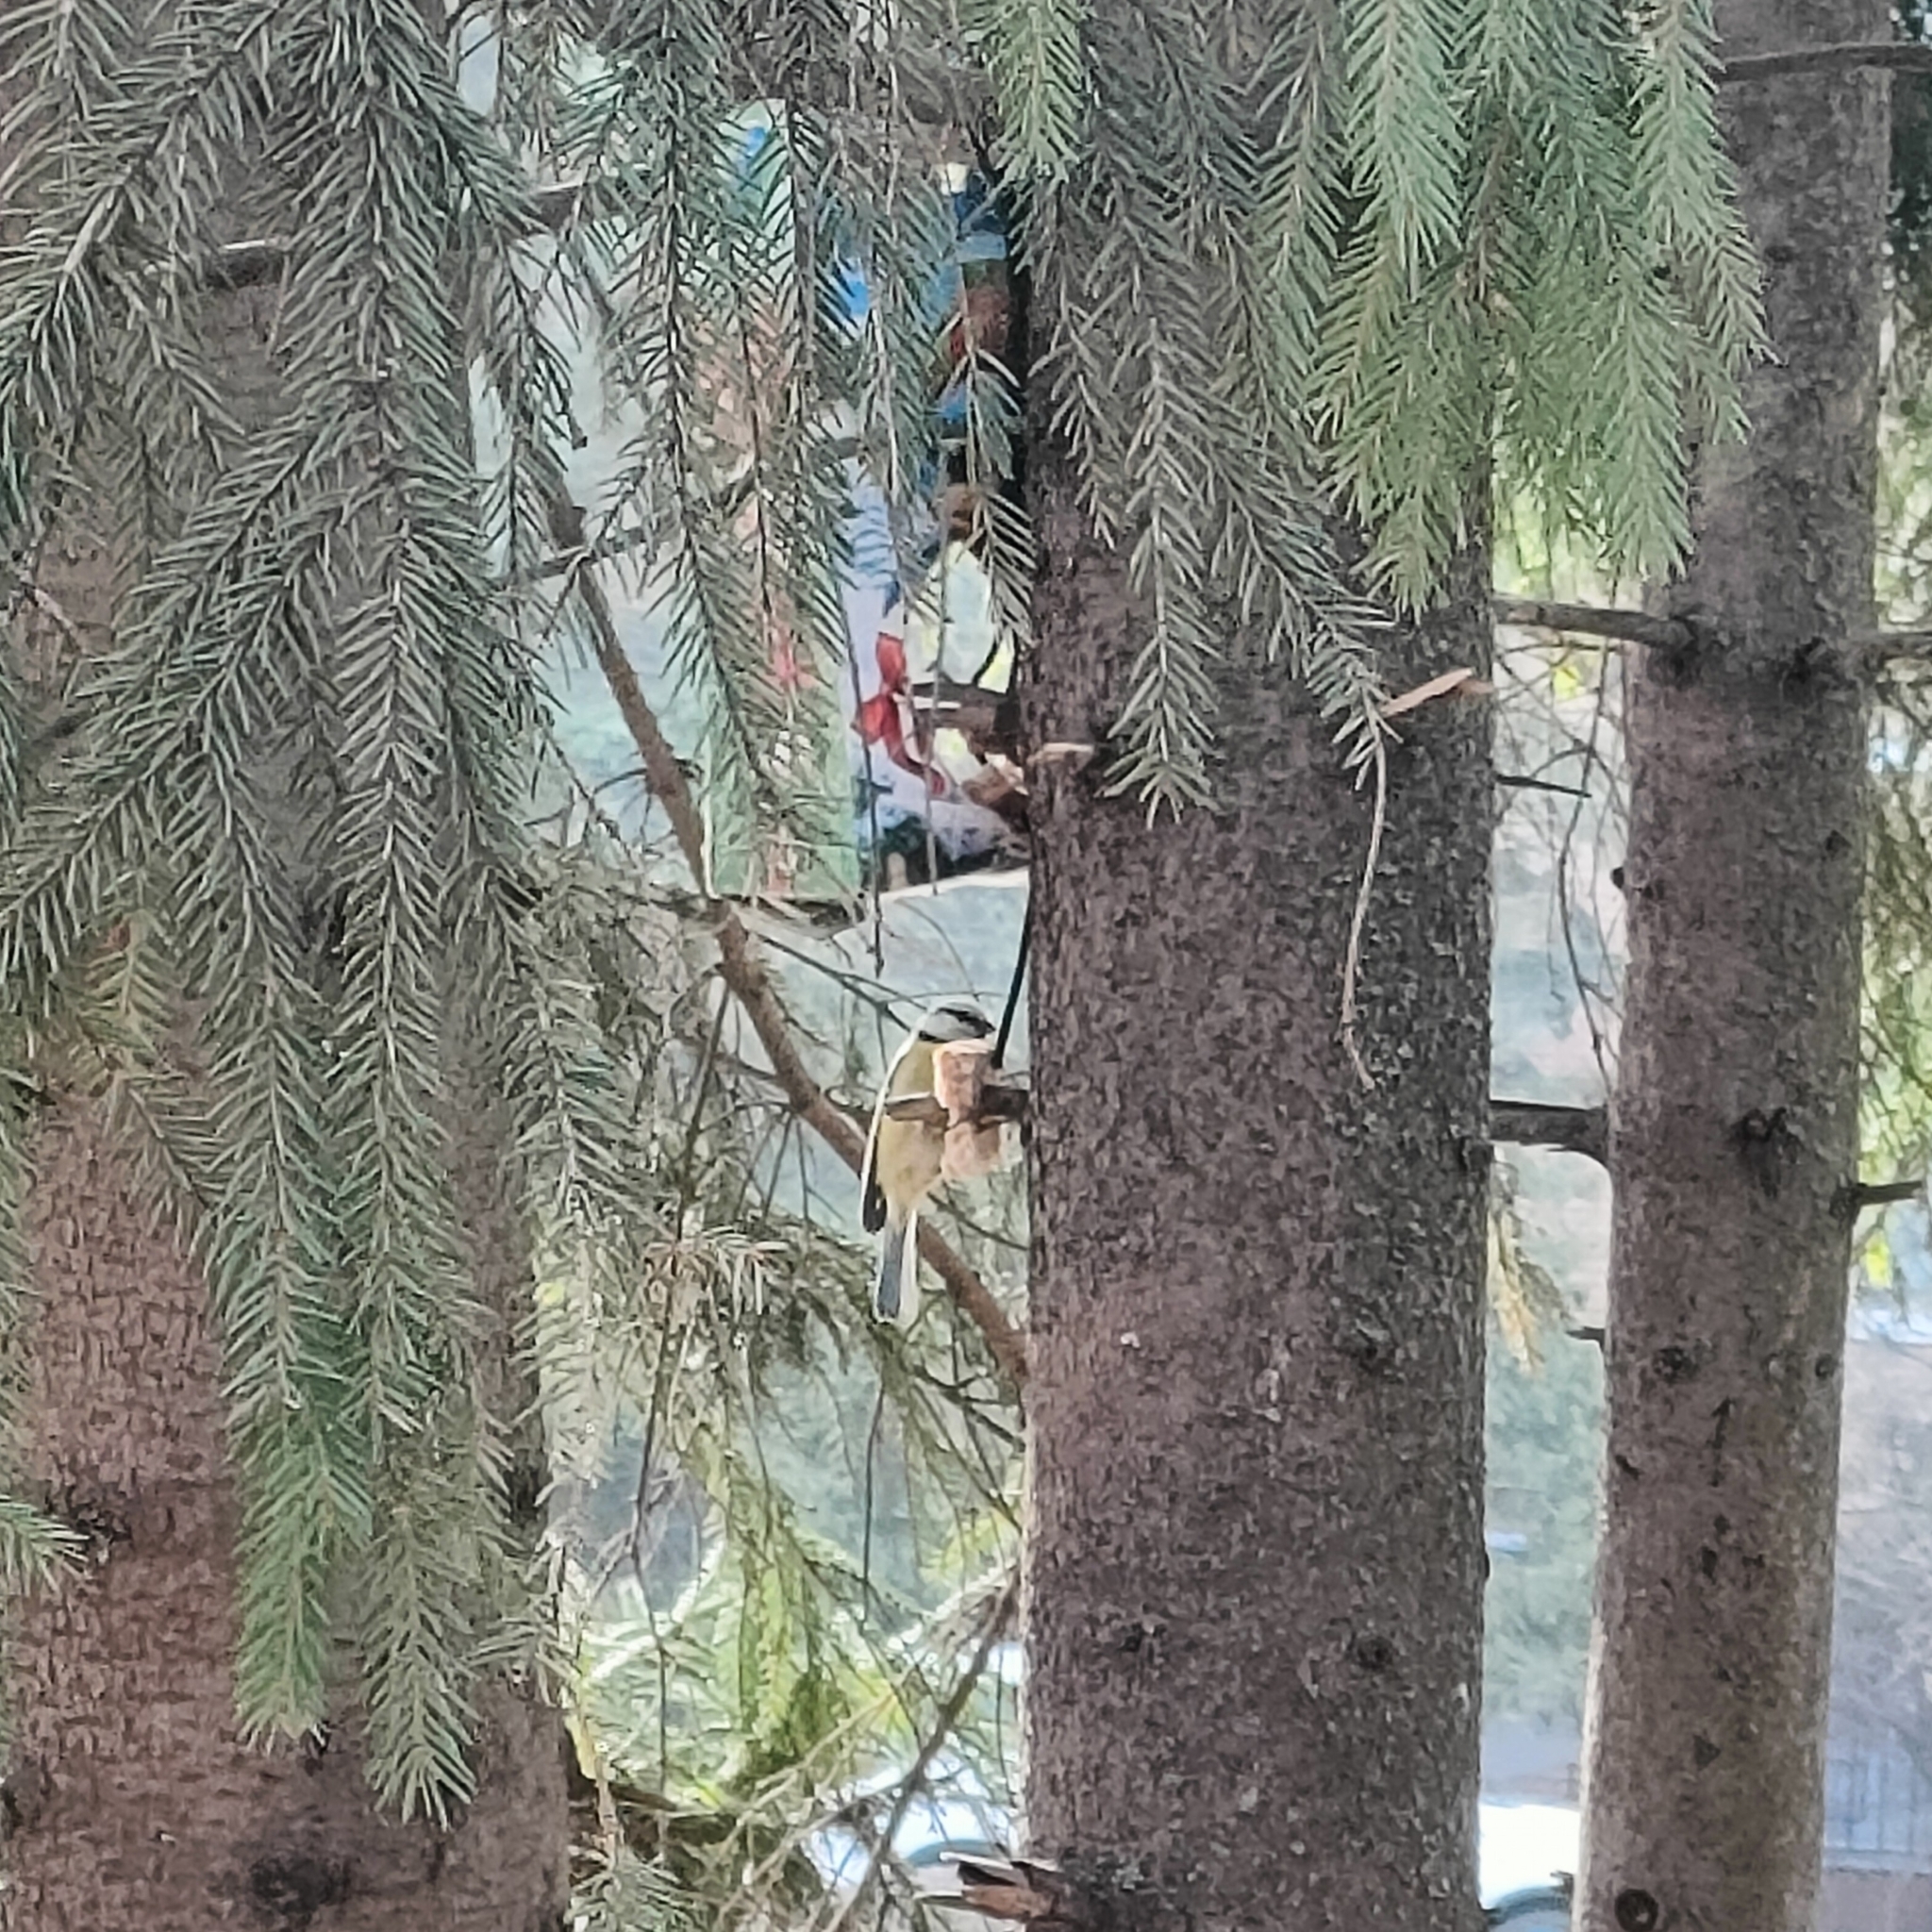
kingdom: Animalia
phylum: Chordata
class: Aves
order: Passeriformes
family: Paridae
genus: Cyanistes
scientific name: Cyanistes caeruleus
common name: Eurasian blue tit
